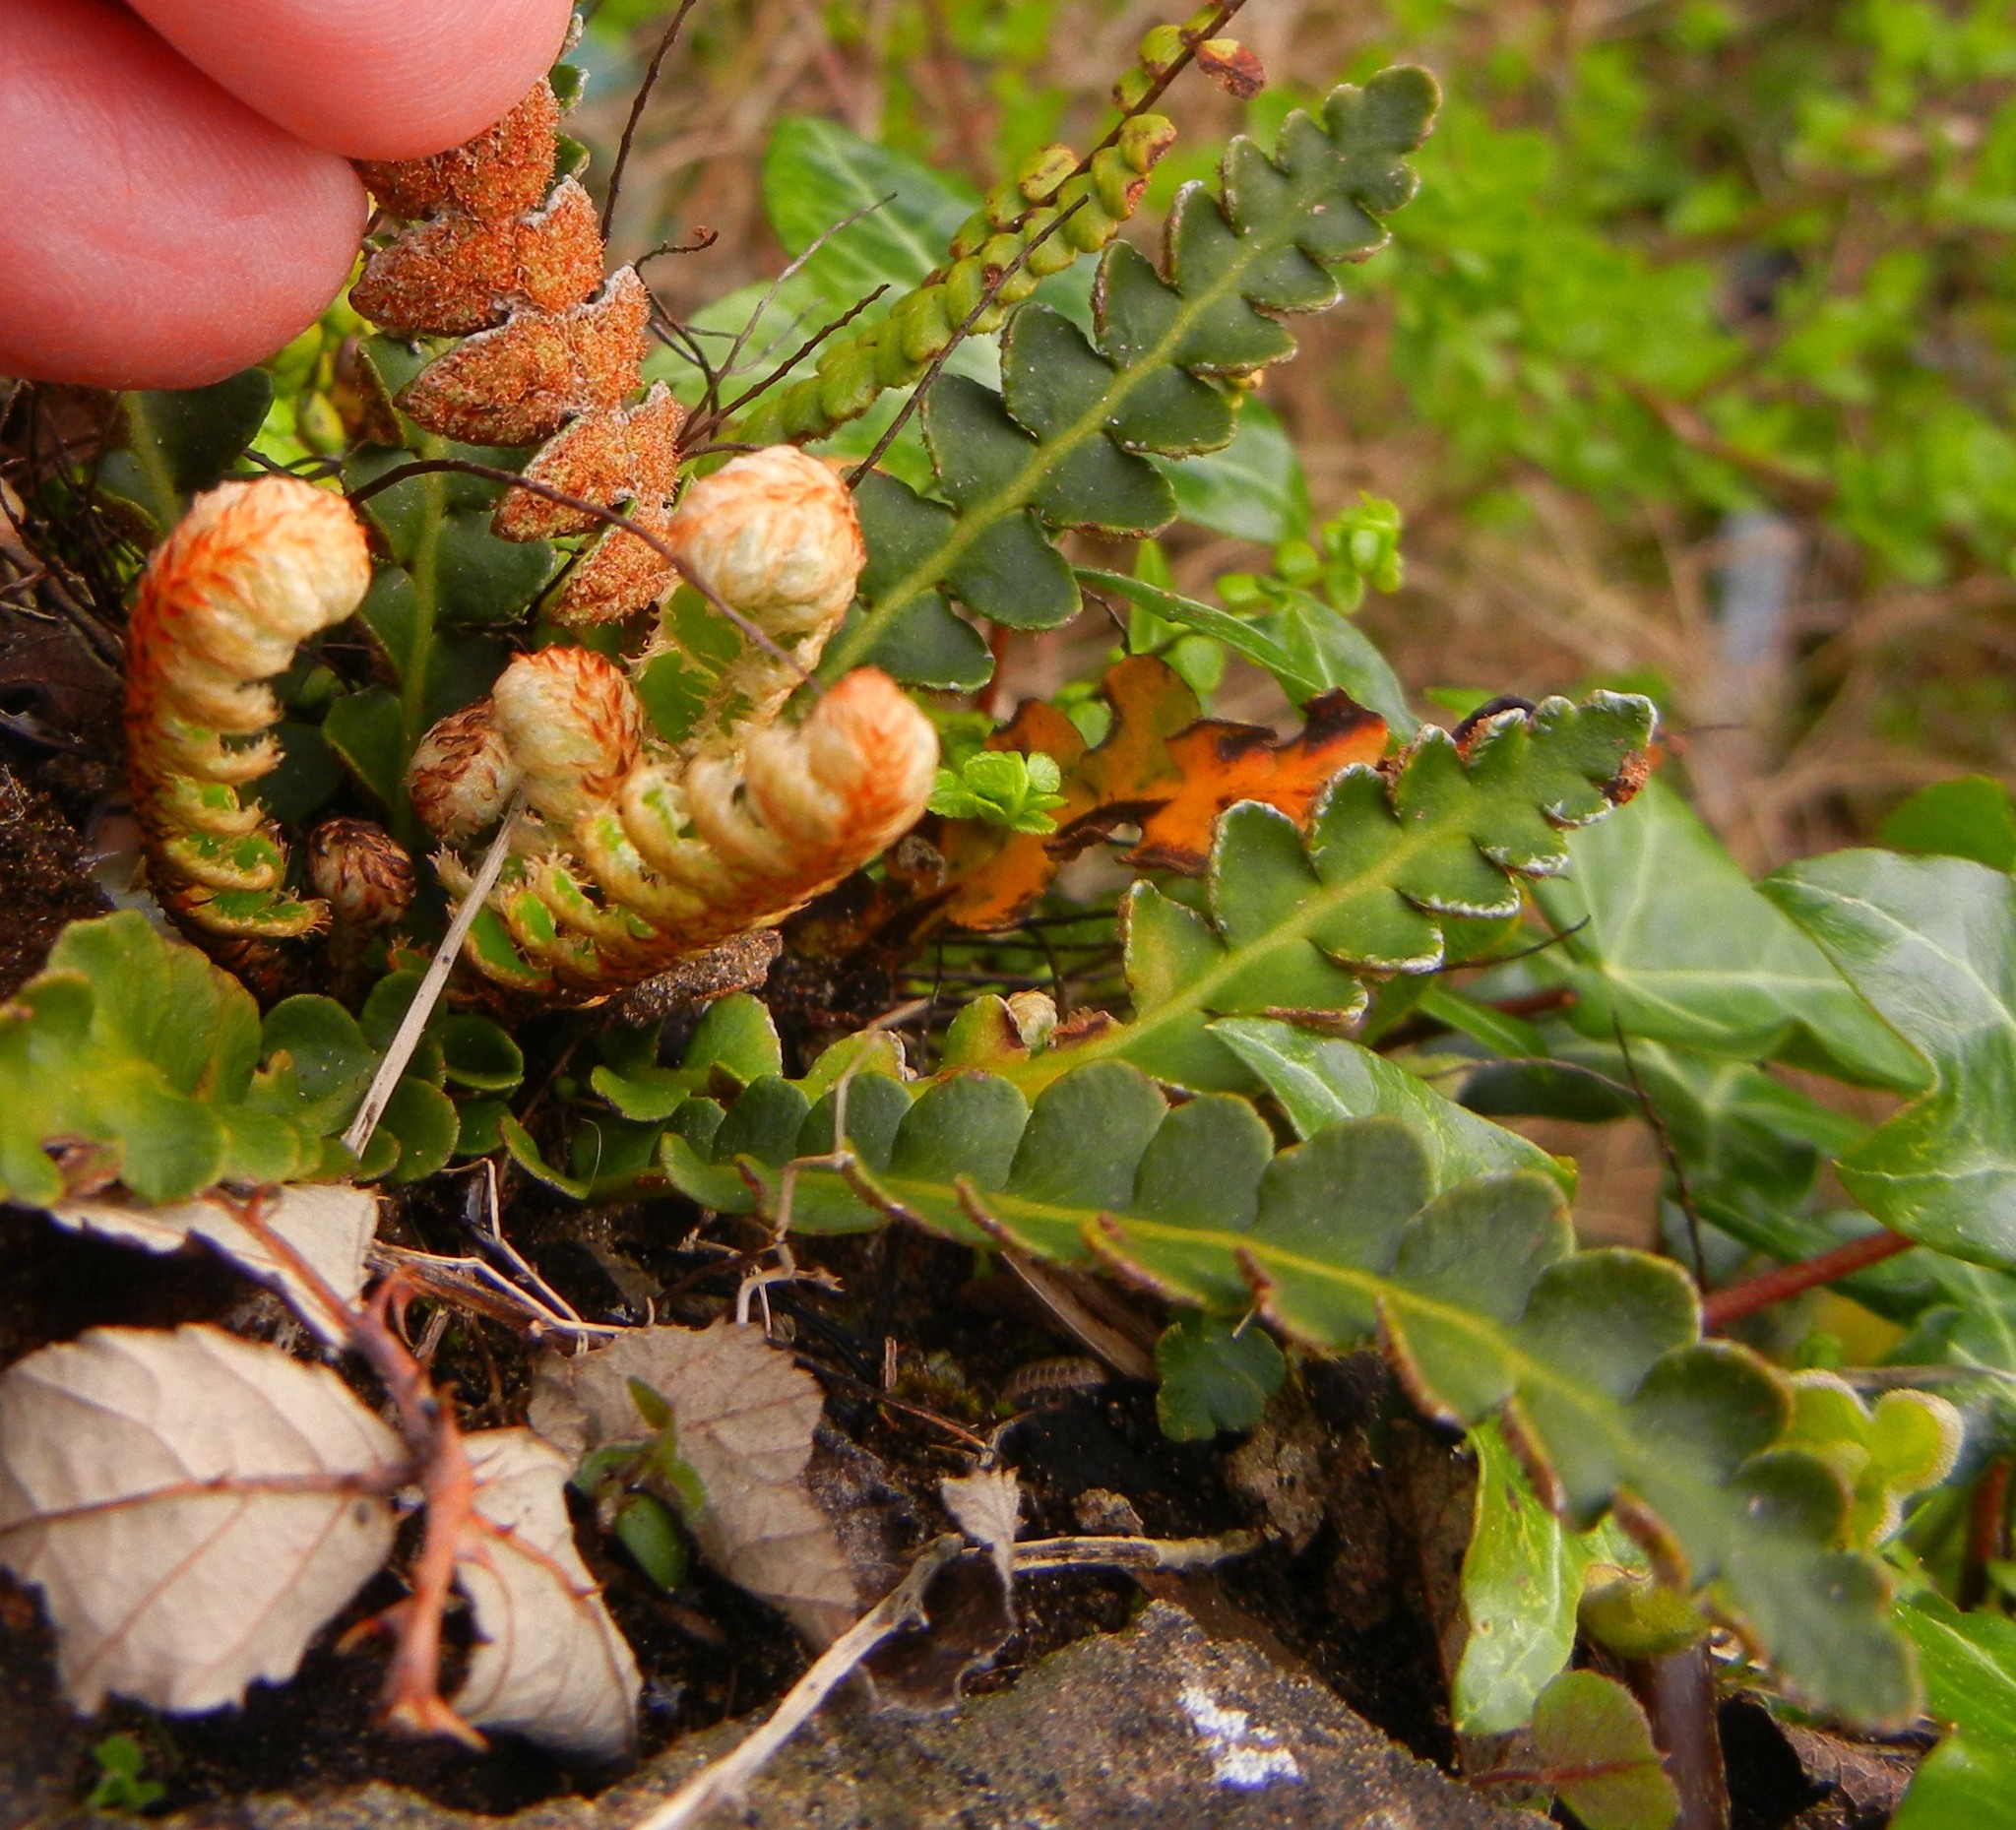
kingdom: Plantae
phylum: Tracheophyta
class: Polypodiopsida
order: Polypodiales
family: Aspleniaceae
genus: Asplenium
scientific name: Asplenium ceterach
